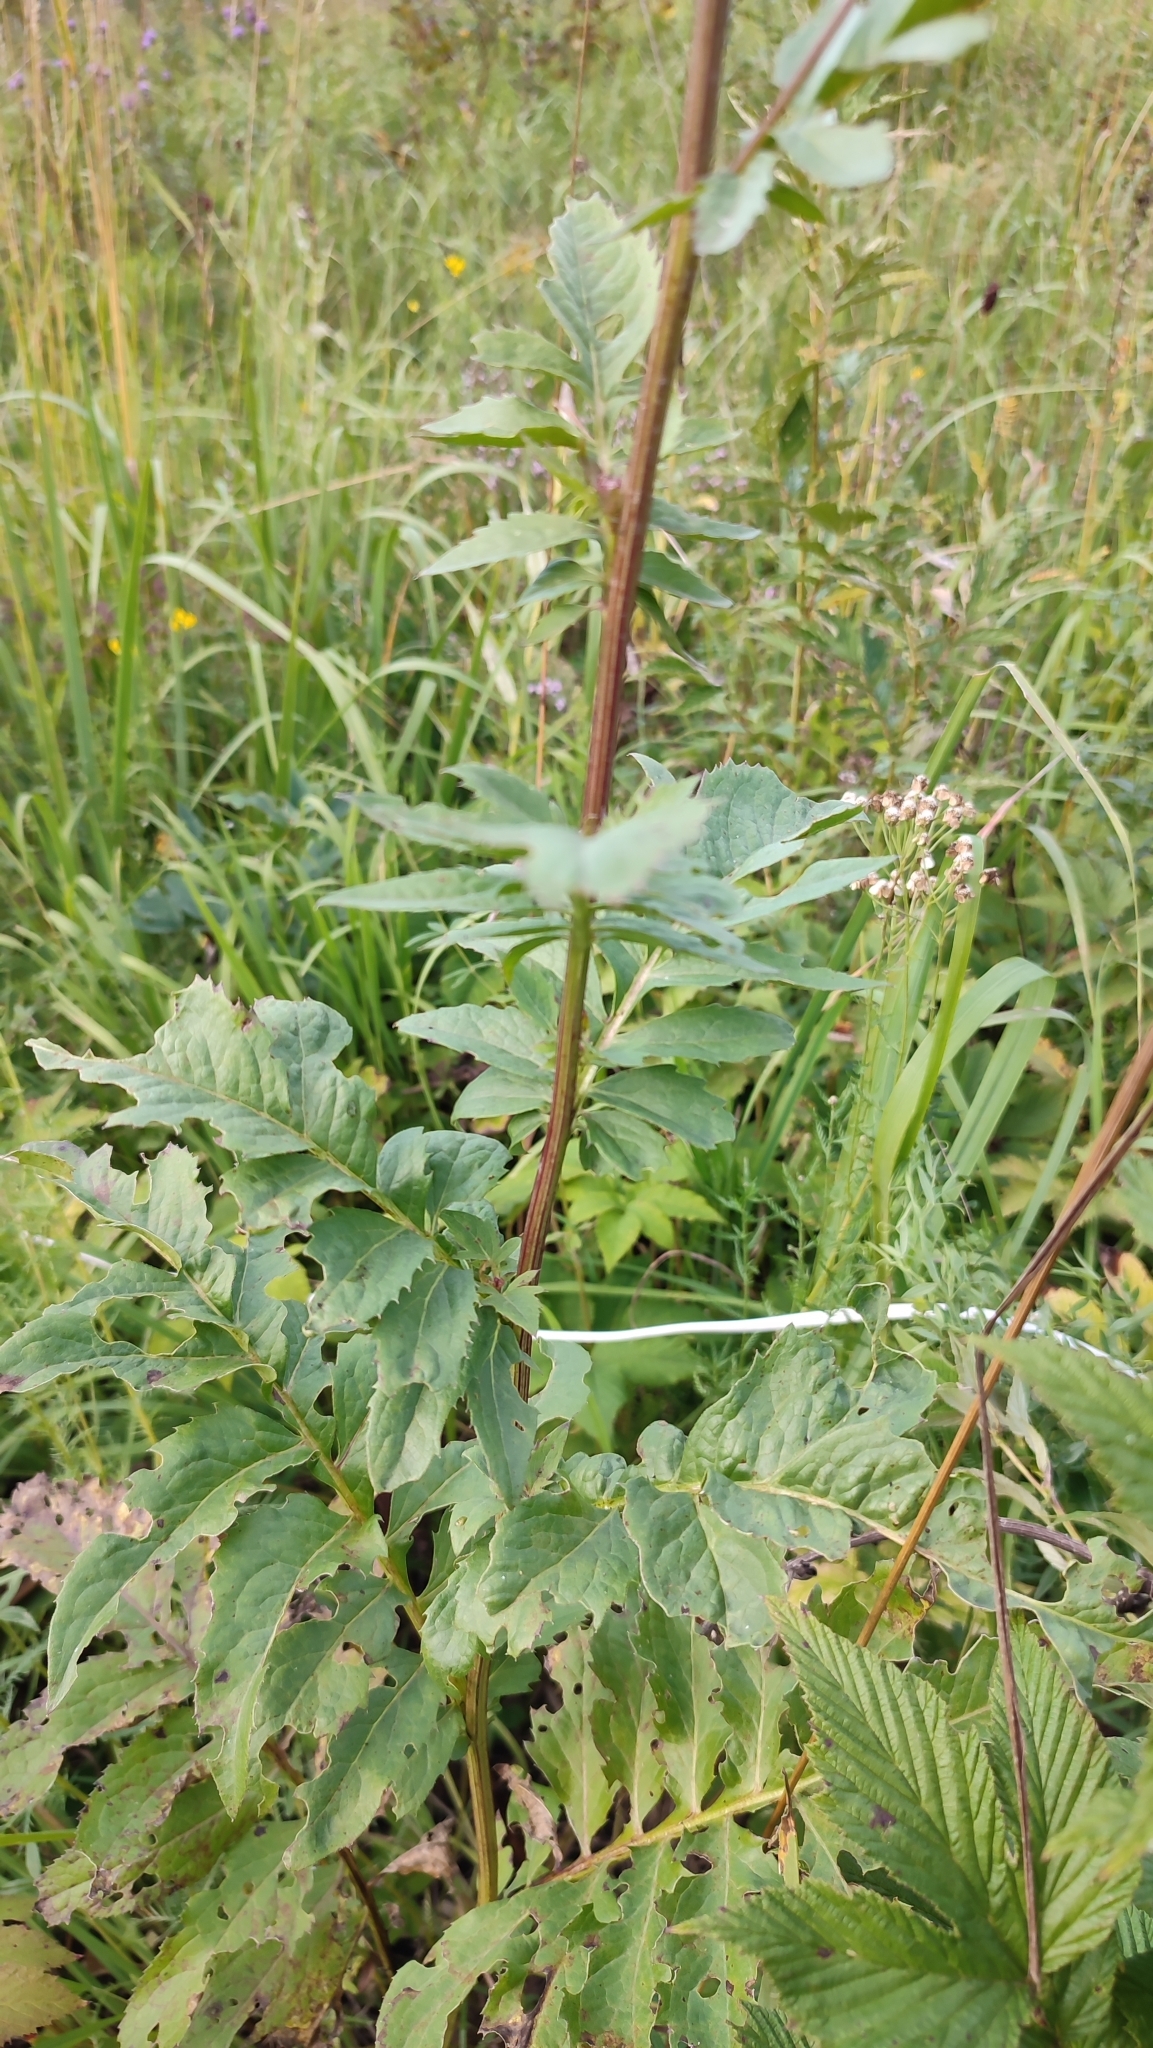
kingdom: Plantae
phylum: Tracheophyta
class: Magnoliopsida
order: Asterales
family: Asteraceae
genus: Serratula
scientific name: Serratula coronata
